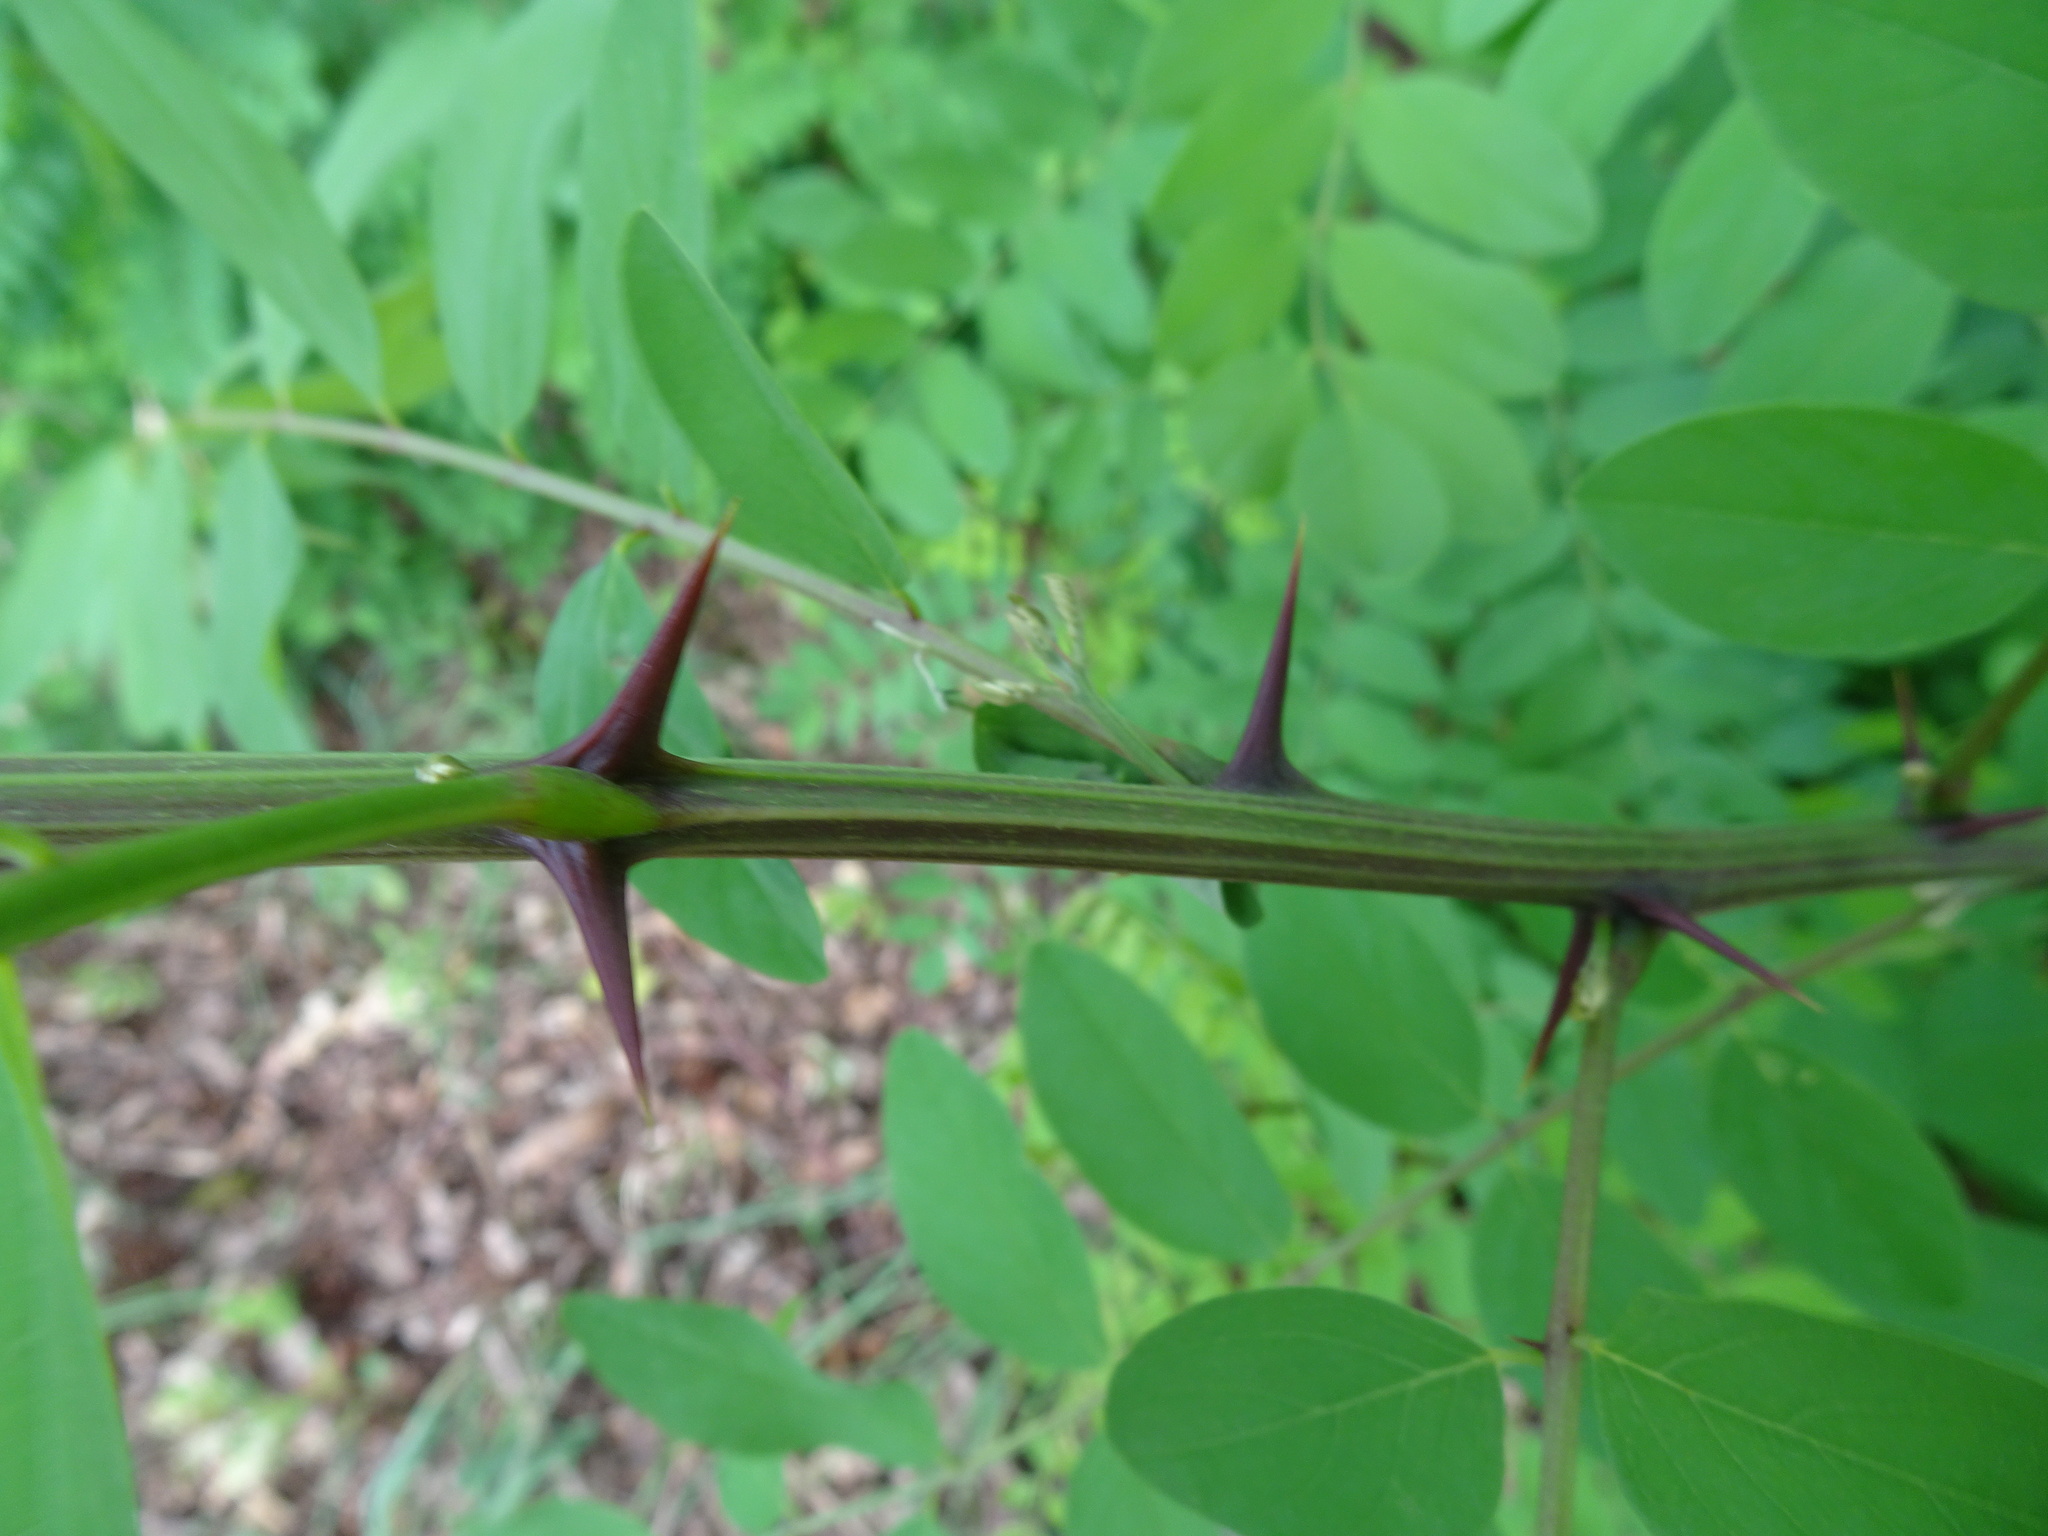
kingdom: Plantae
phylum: Tracheophyta
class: Magnoliopsida
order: Fabales
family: Fabaceae
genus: Robinia
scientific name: Robinia pseudoacacia
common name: Black locust
